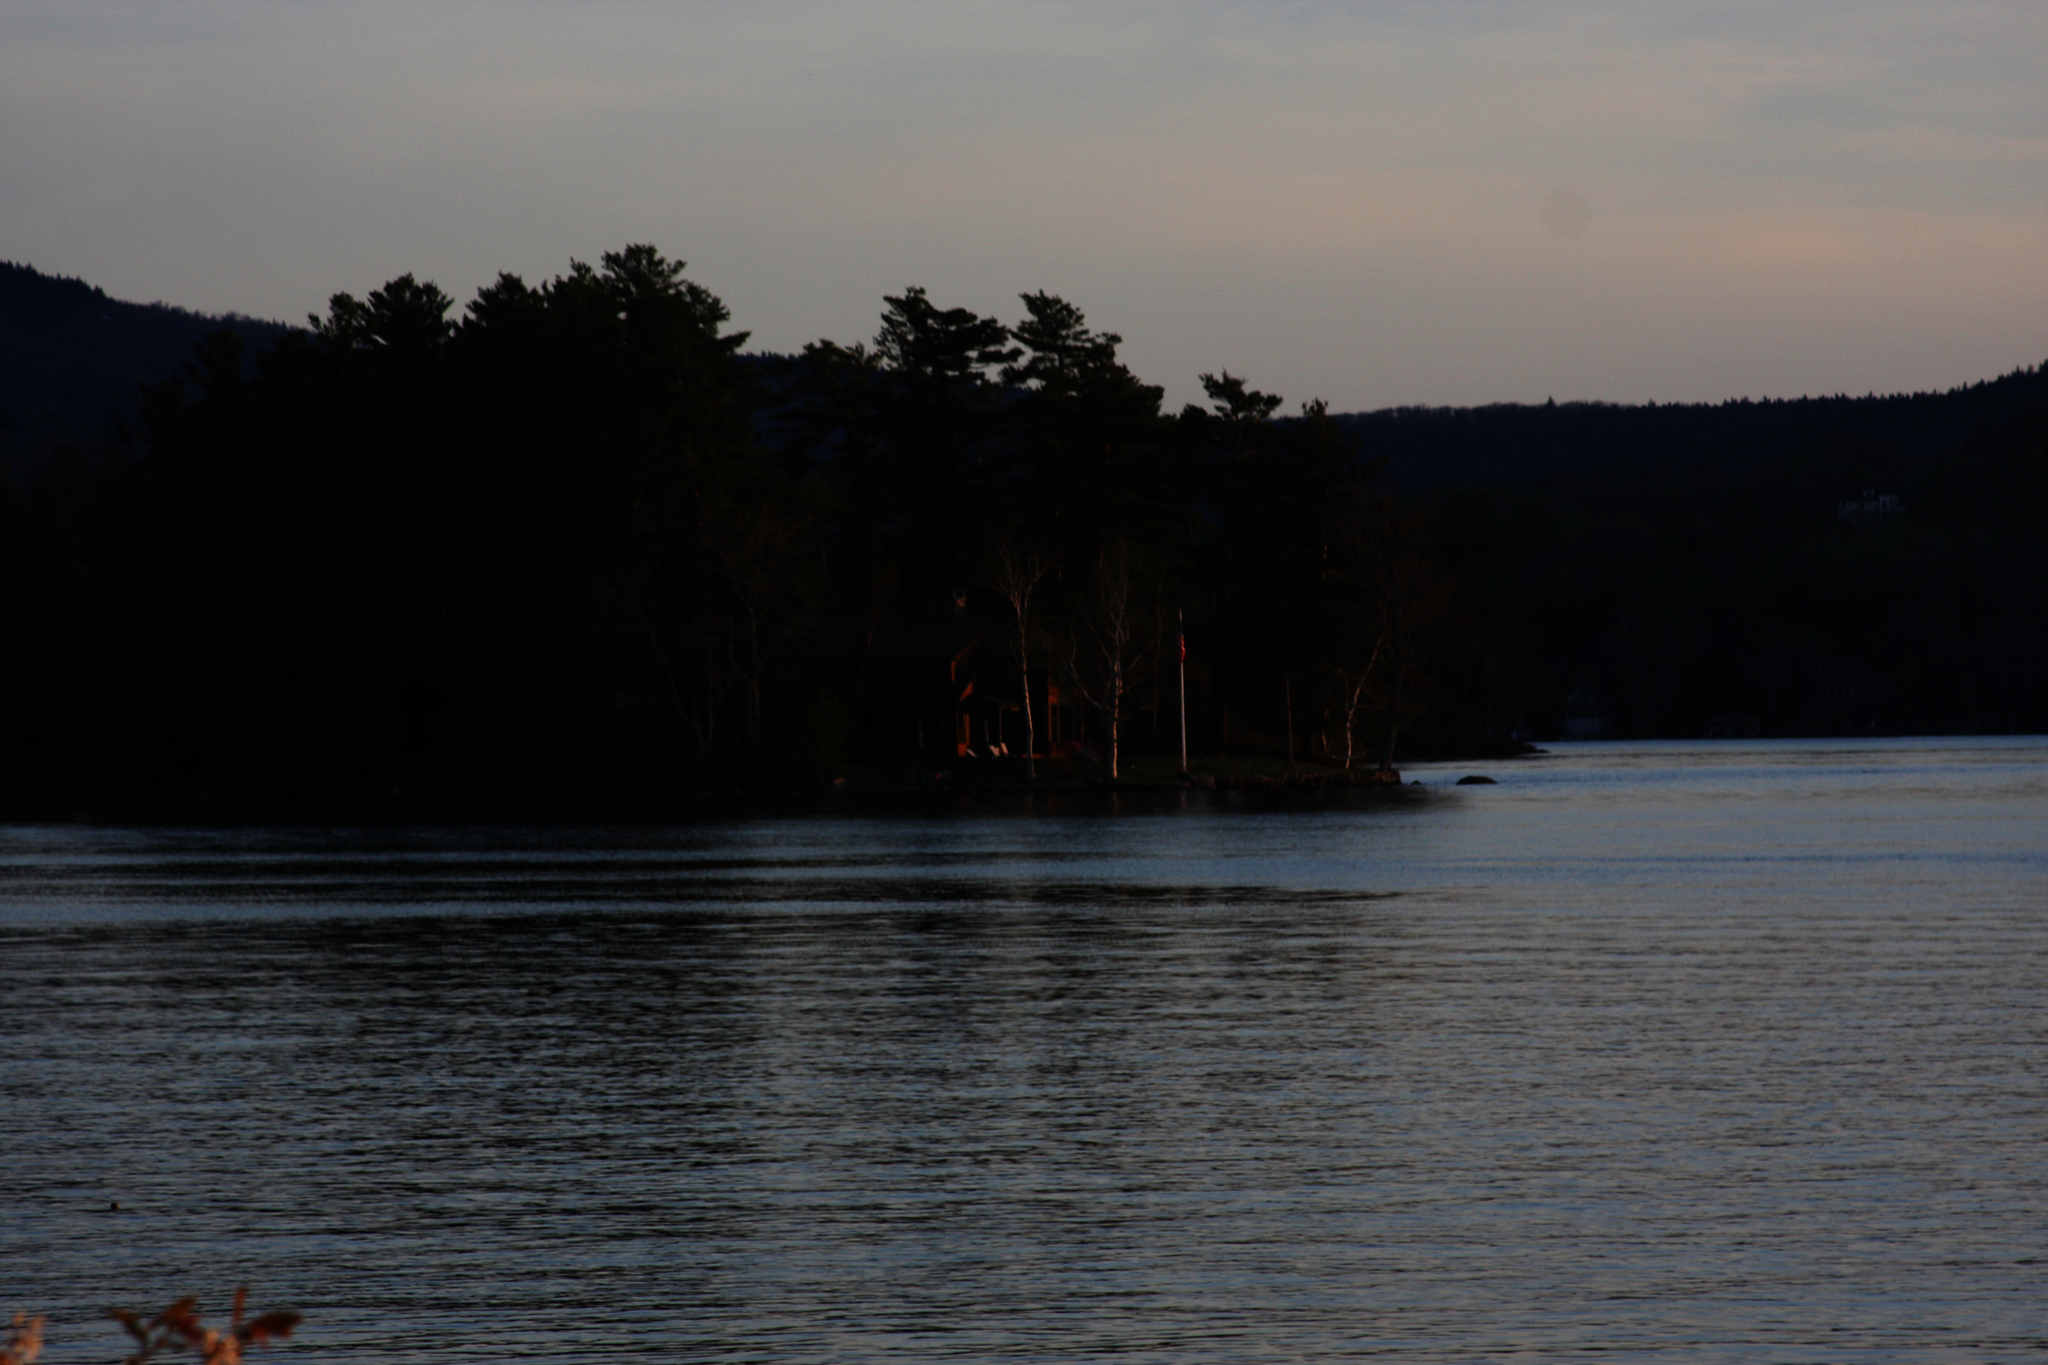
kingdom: Plantae
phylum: Tracheophyta
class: Pinopsida
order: Pinales
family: Pinaceae
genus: Pinus
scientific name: Pinus strobus
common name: Weymouth pine
